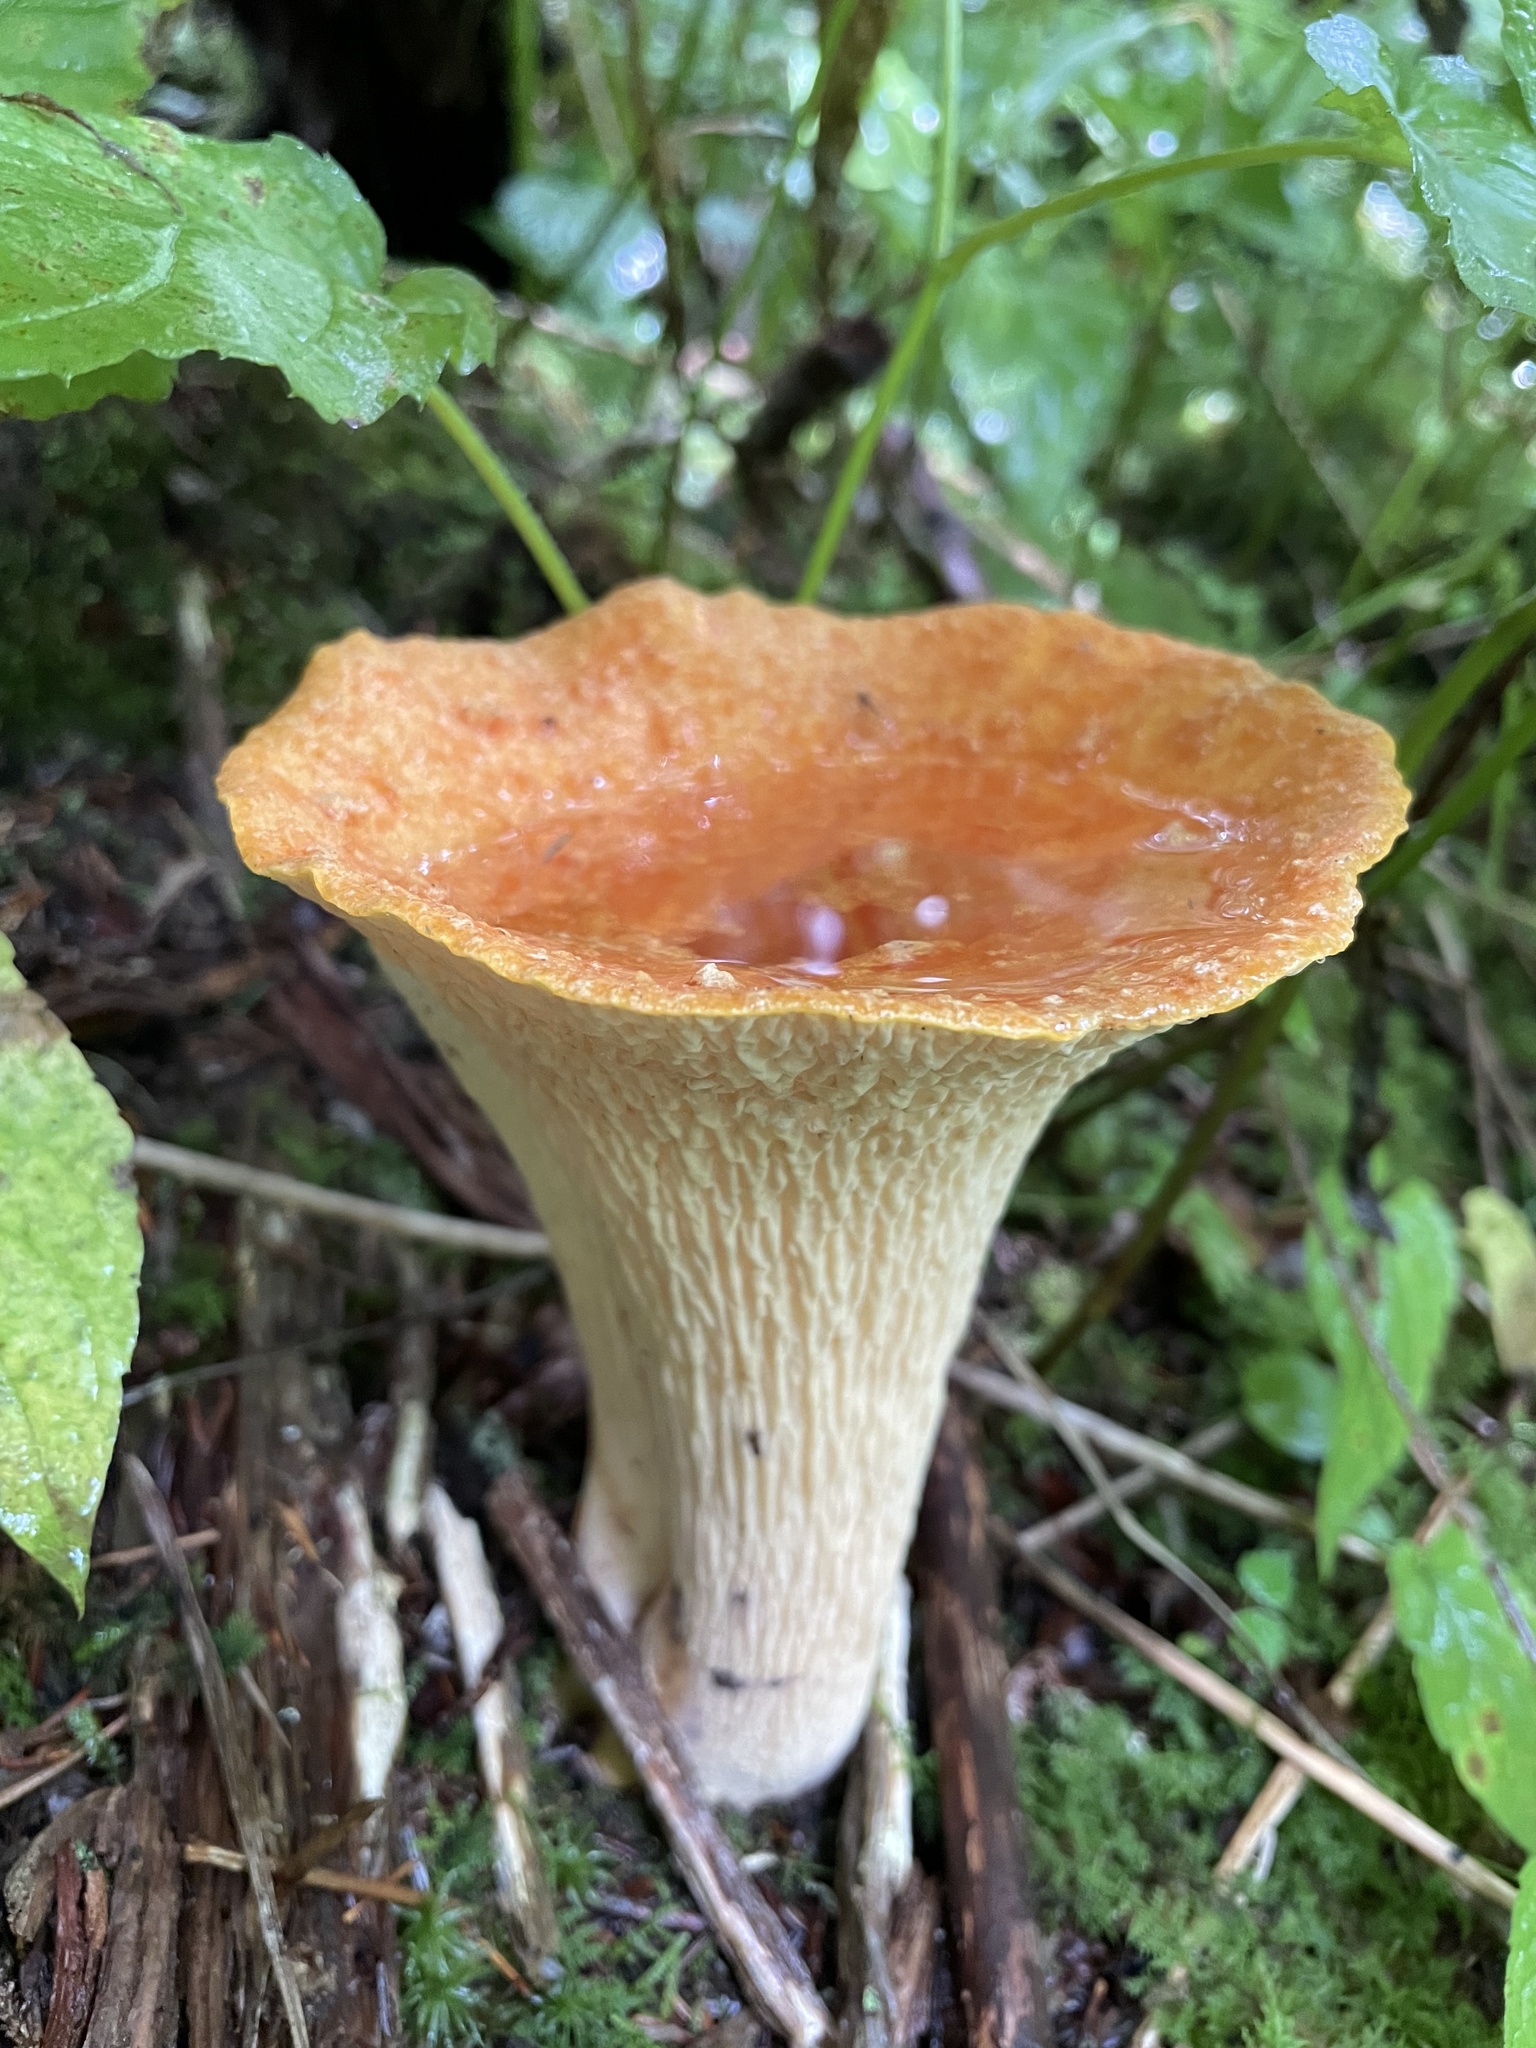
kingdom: Fungi
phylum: Basidiomycota
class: Agaricomycetes
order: Gomphales
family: Gomphaceae
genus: Turbinellus
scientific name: Turbinellus floccosus
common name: Scaly chanterelle
